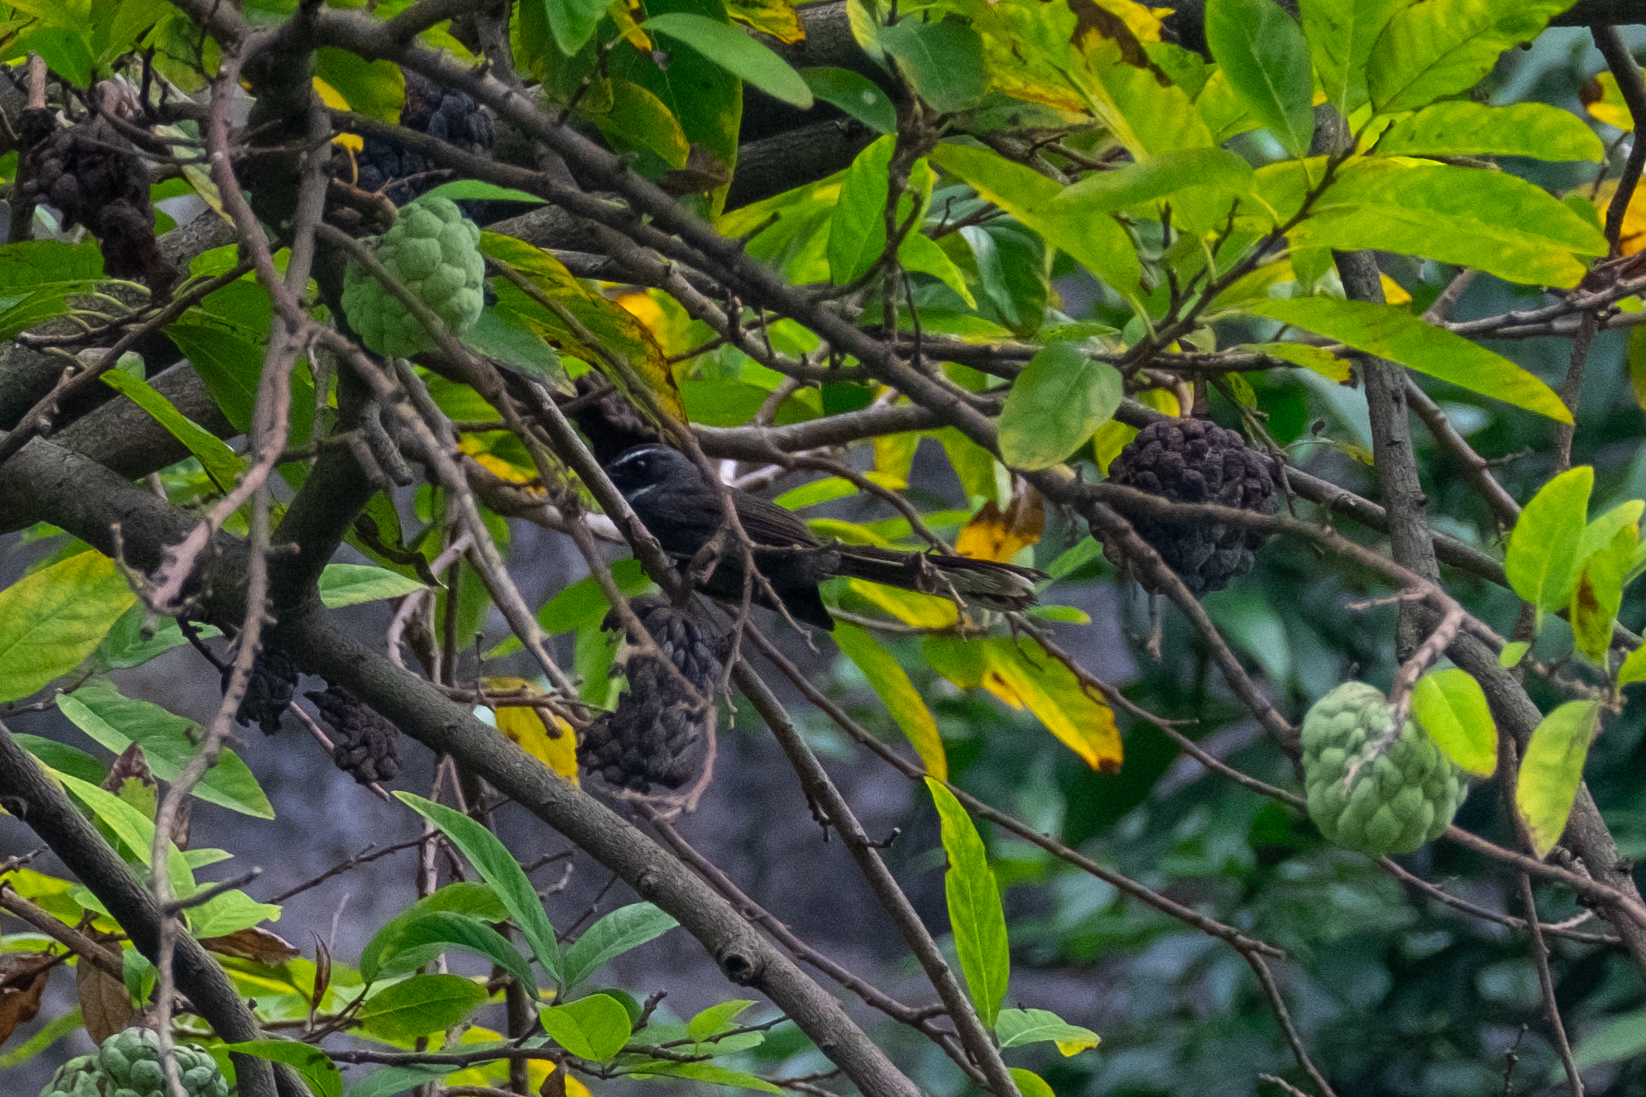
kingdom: Animalia
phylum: Chordata
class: Aves
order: Passeriformes
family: Rhipiduridae
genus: Rhipidura
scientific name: Rhipidura albicollis
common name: White-throated fantail
